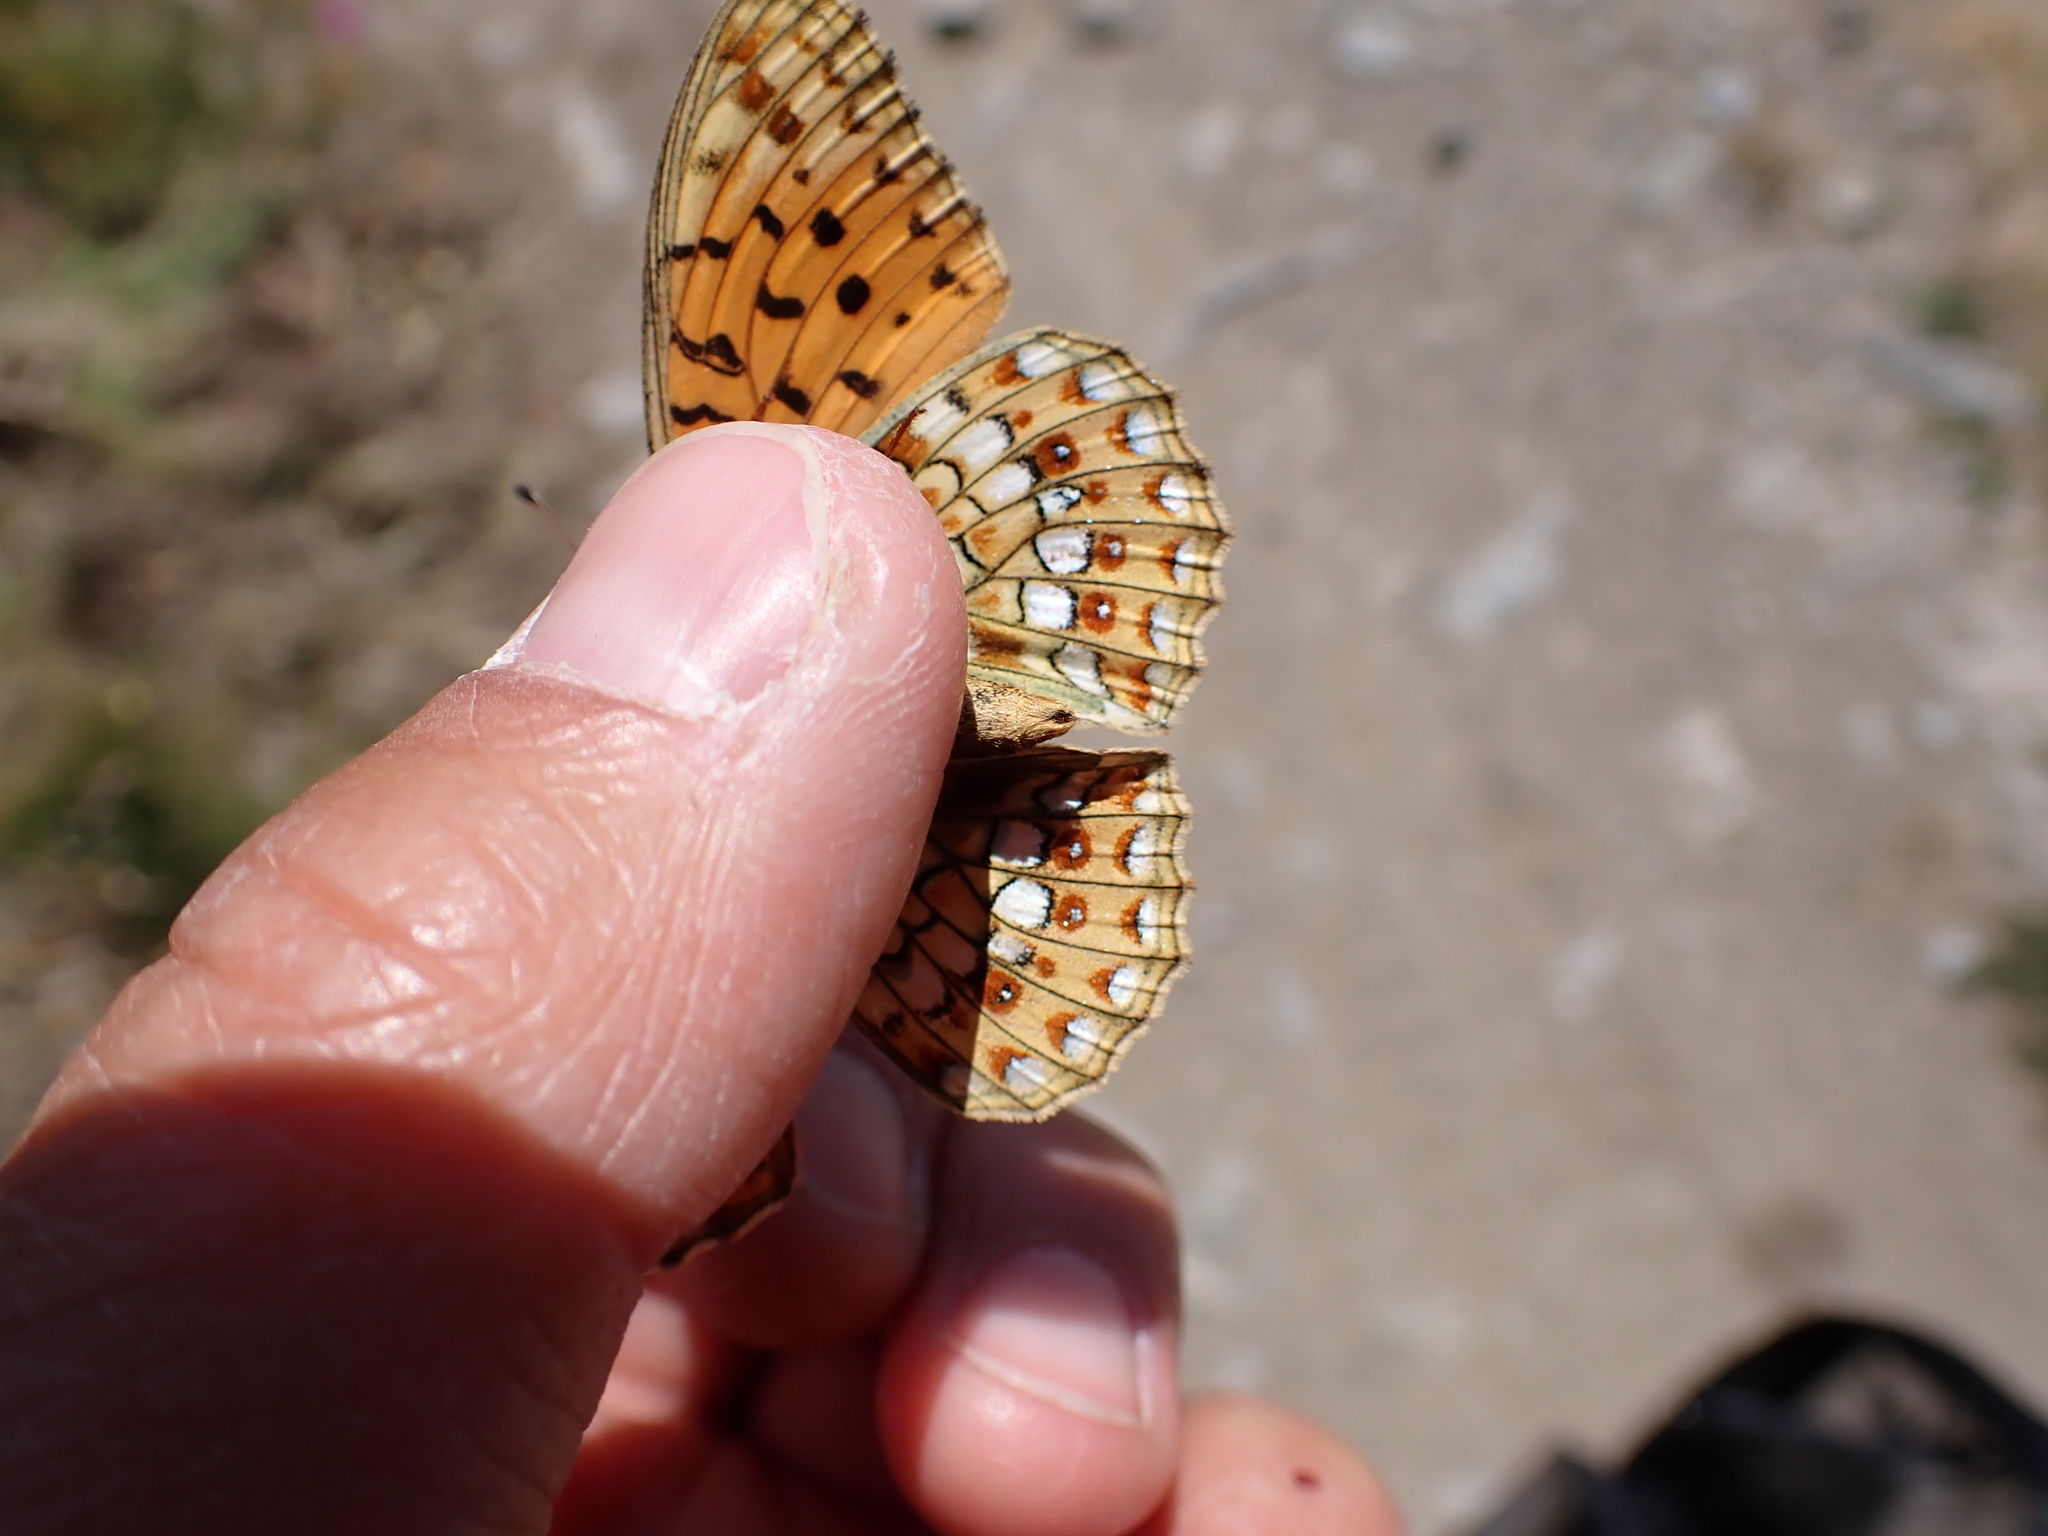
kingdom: Animalia
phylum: Arthropoda
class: Insecta
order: Lepidoptera
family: Nymphalidae
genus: Fabriciana
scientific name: Fabriciana niobe
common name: Niobe fritillary
